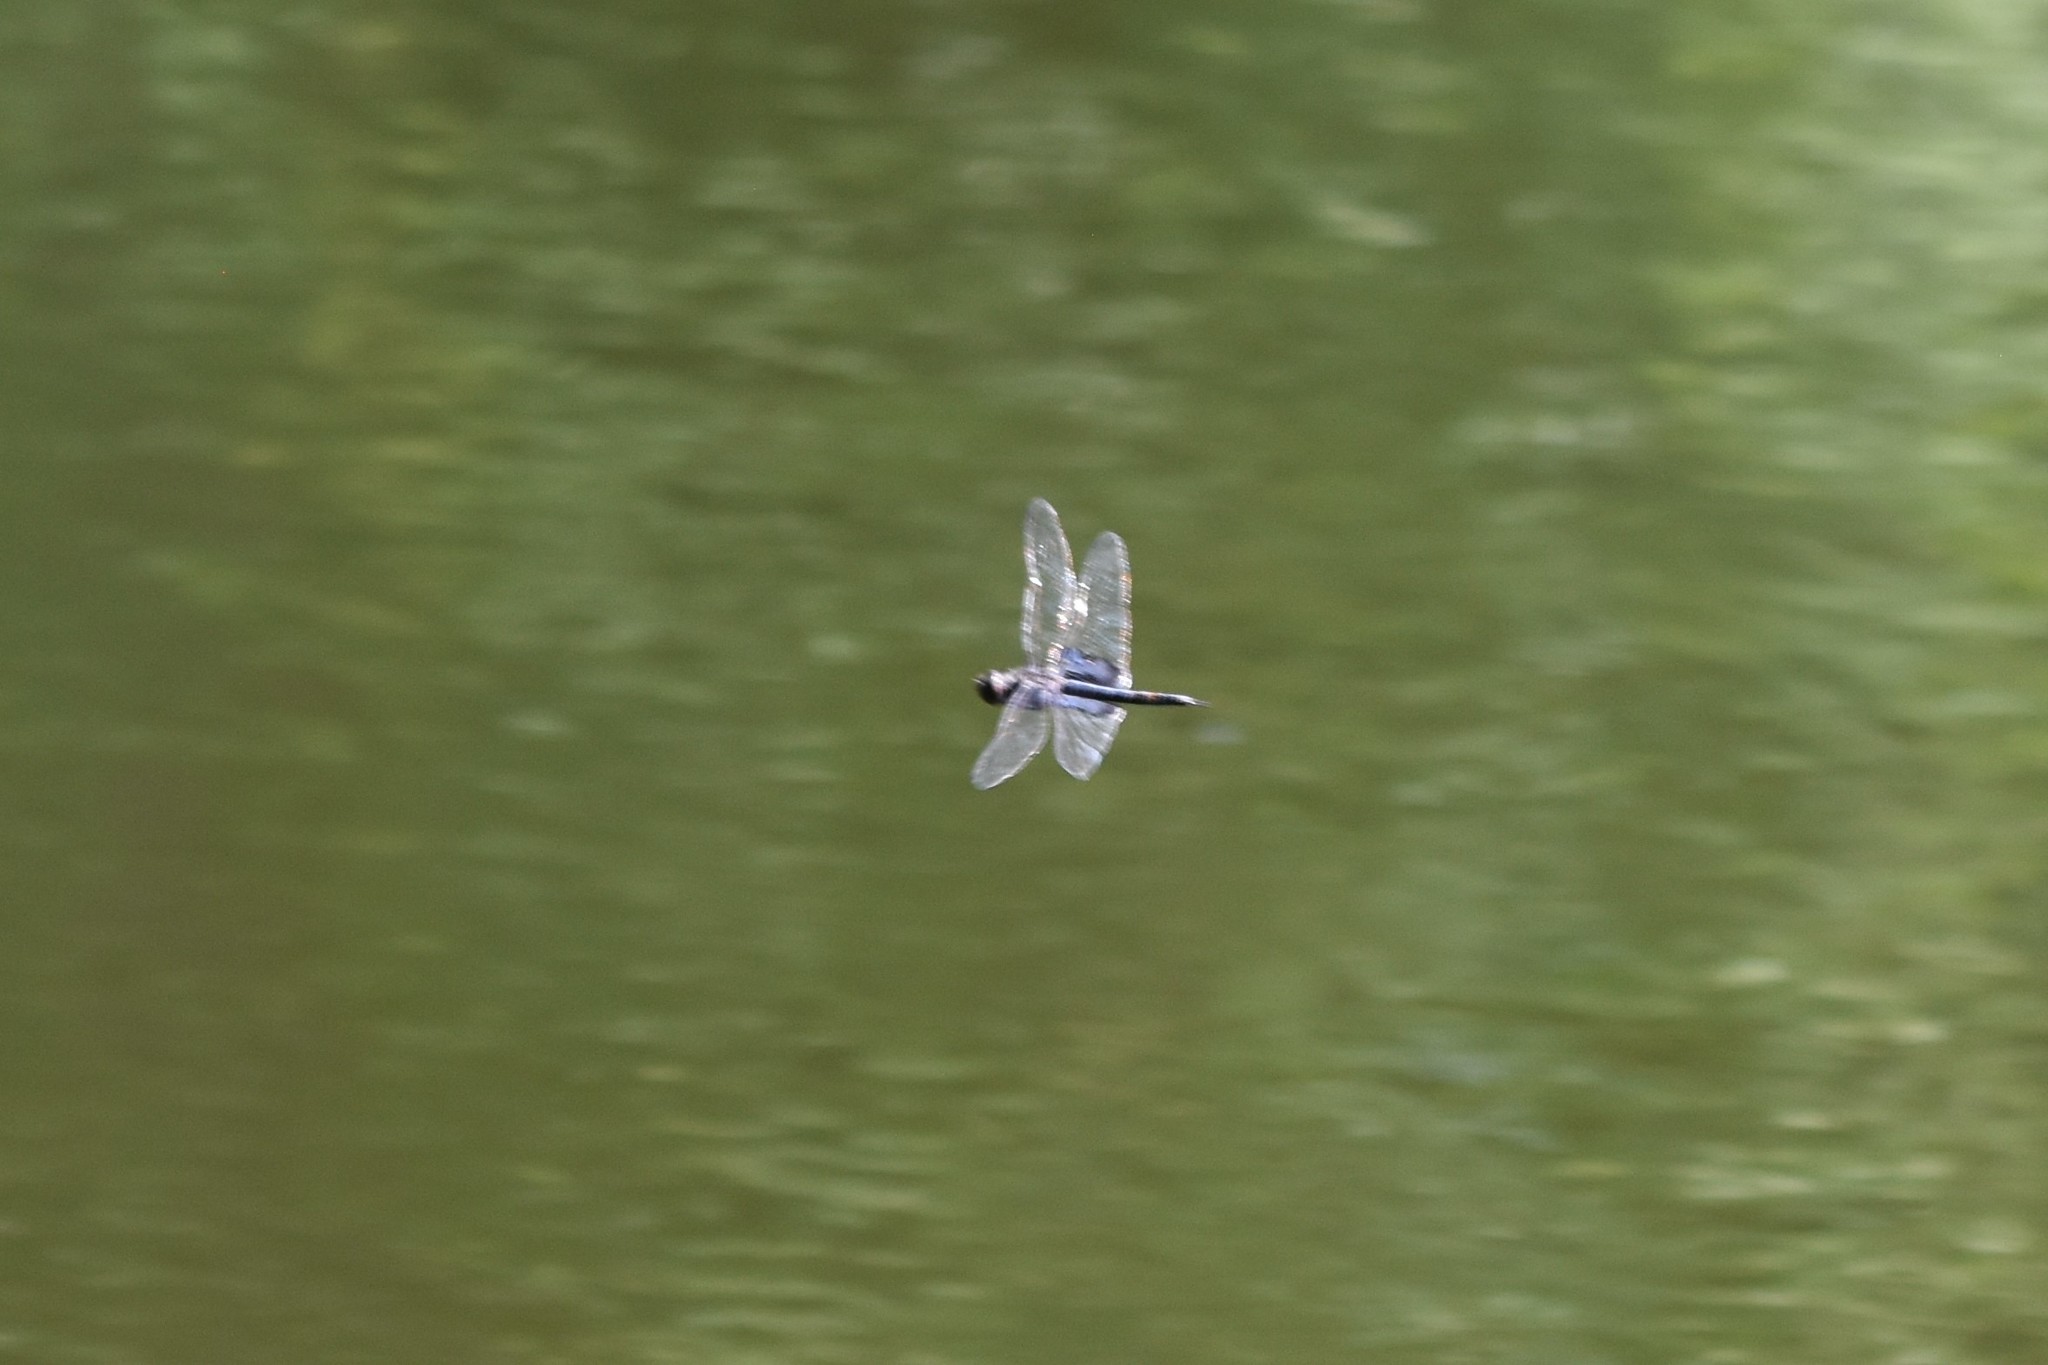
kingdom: Animalia
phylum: Arthropoda
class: Insecta
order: Odonata
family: Libellulidae
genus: Tramea
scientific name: Tramea lacerata
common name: Black saddlebags
